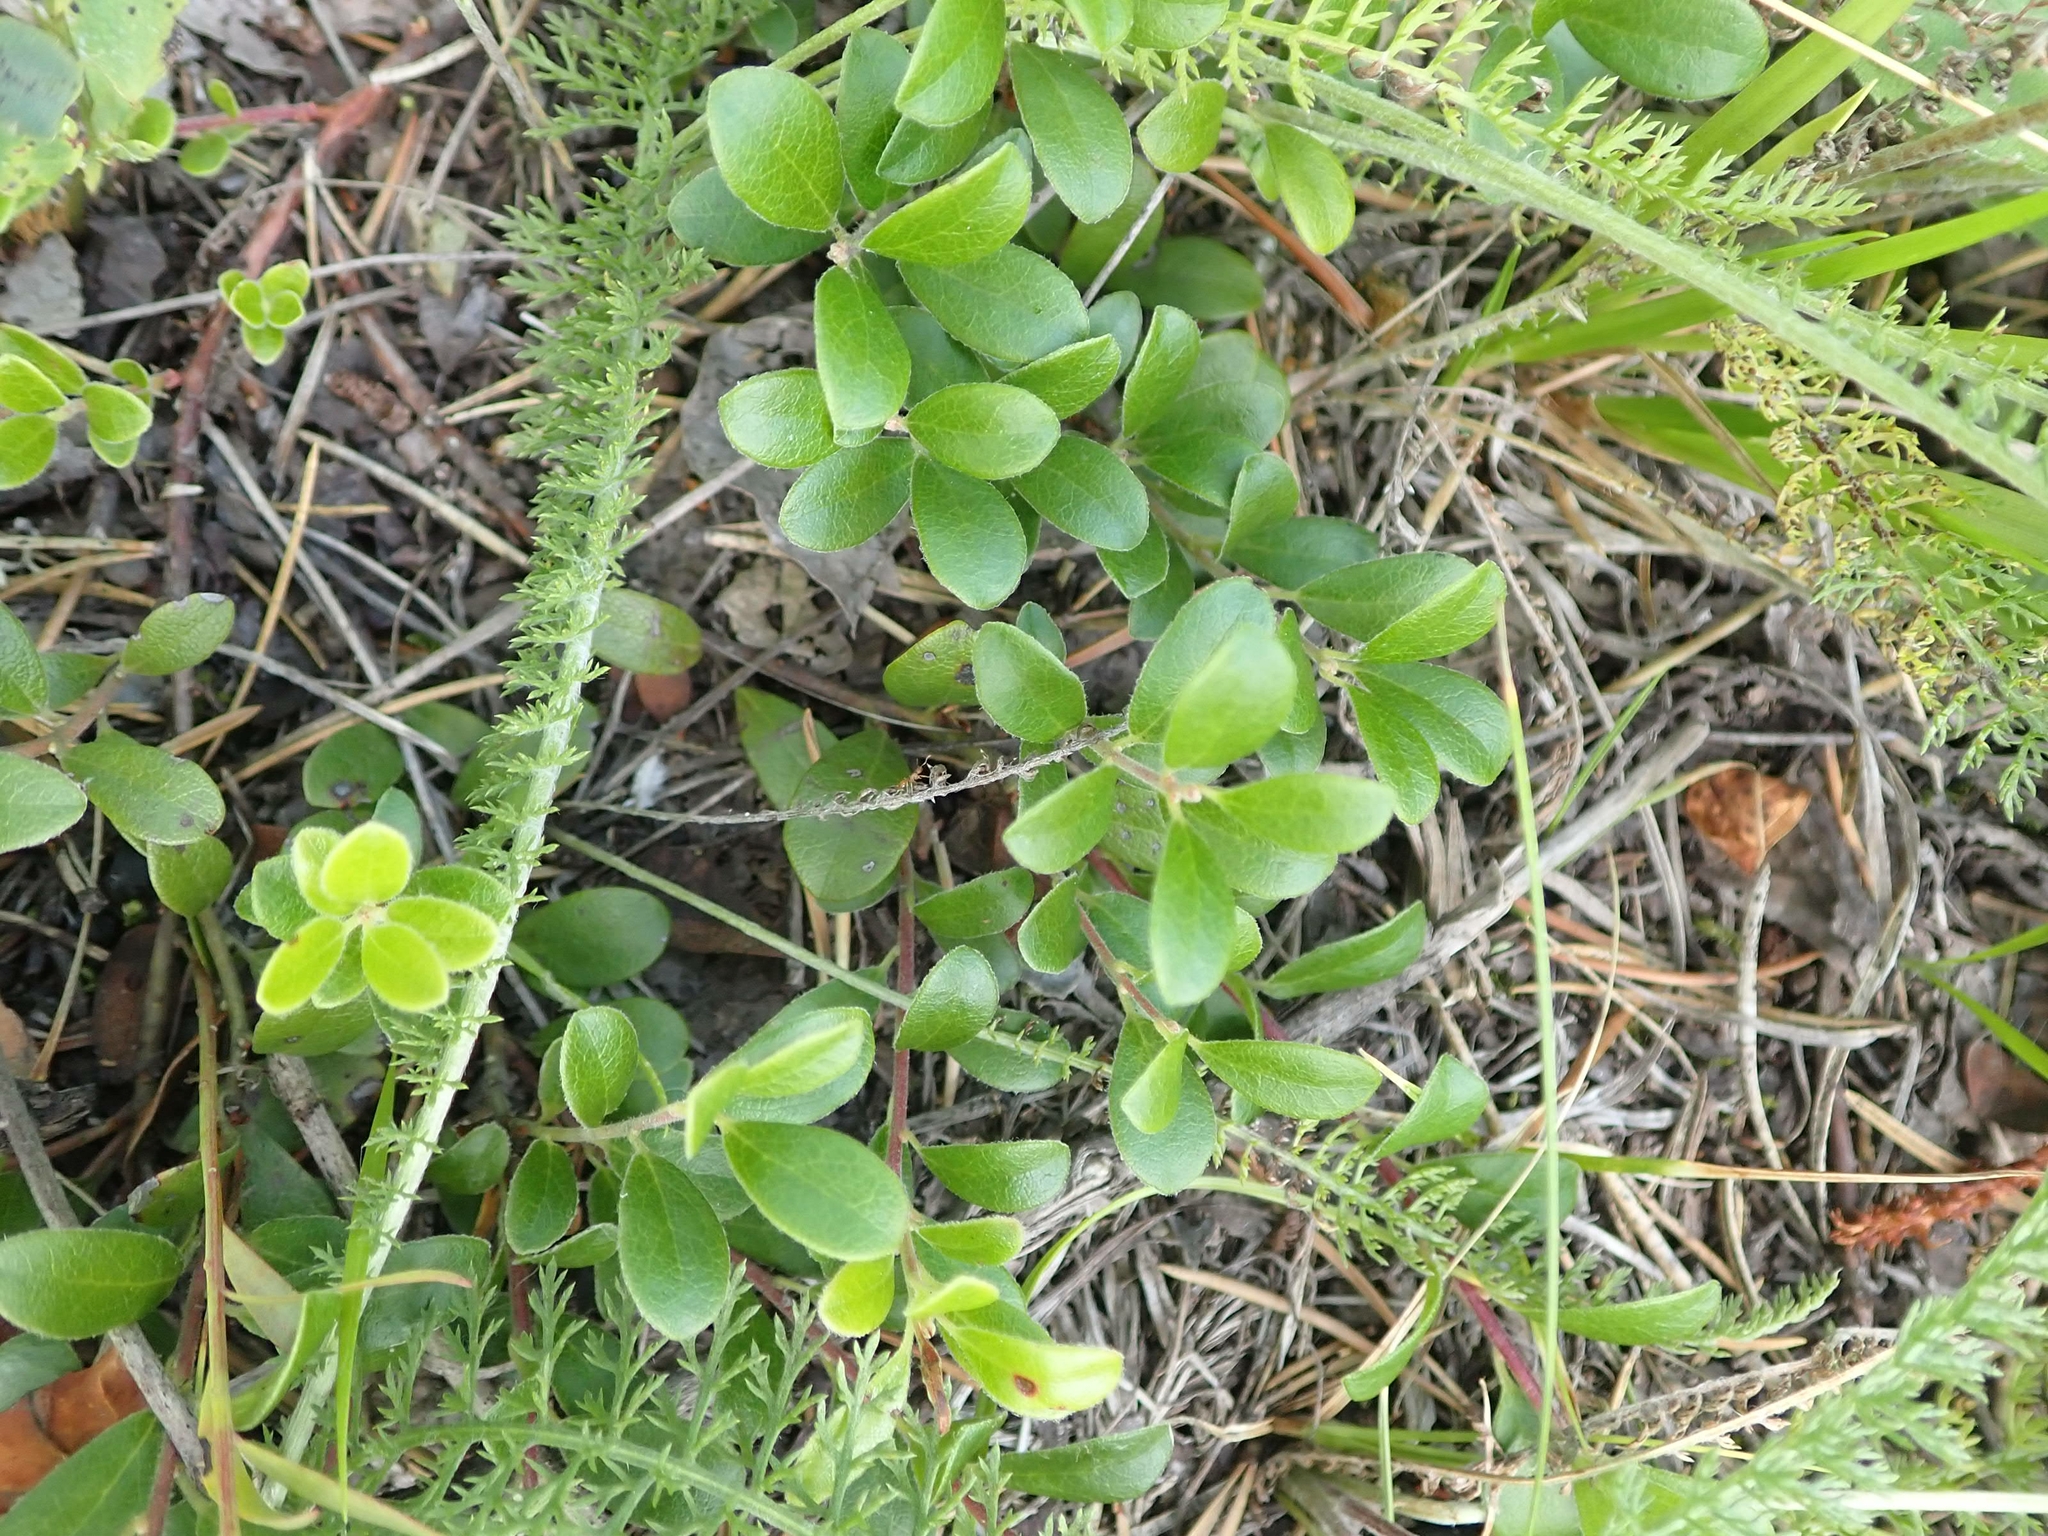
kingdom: Plantae
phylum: Tracheophyta
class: Magnoliopsida
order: Ericales
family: Ericaceae
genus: Arctostaphylos
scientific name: Arctostaphylos uva-ursi
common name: Bearberry
